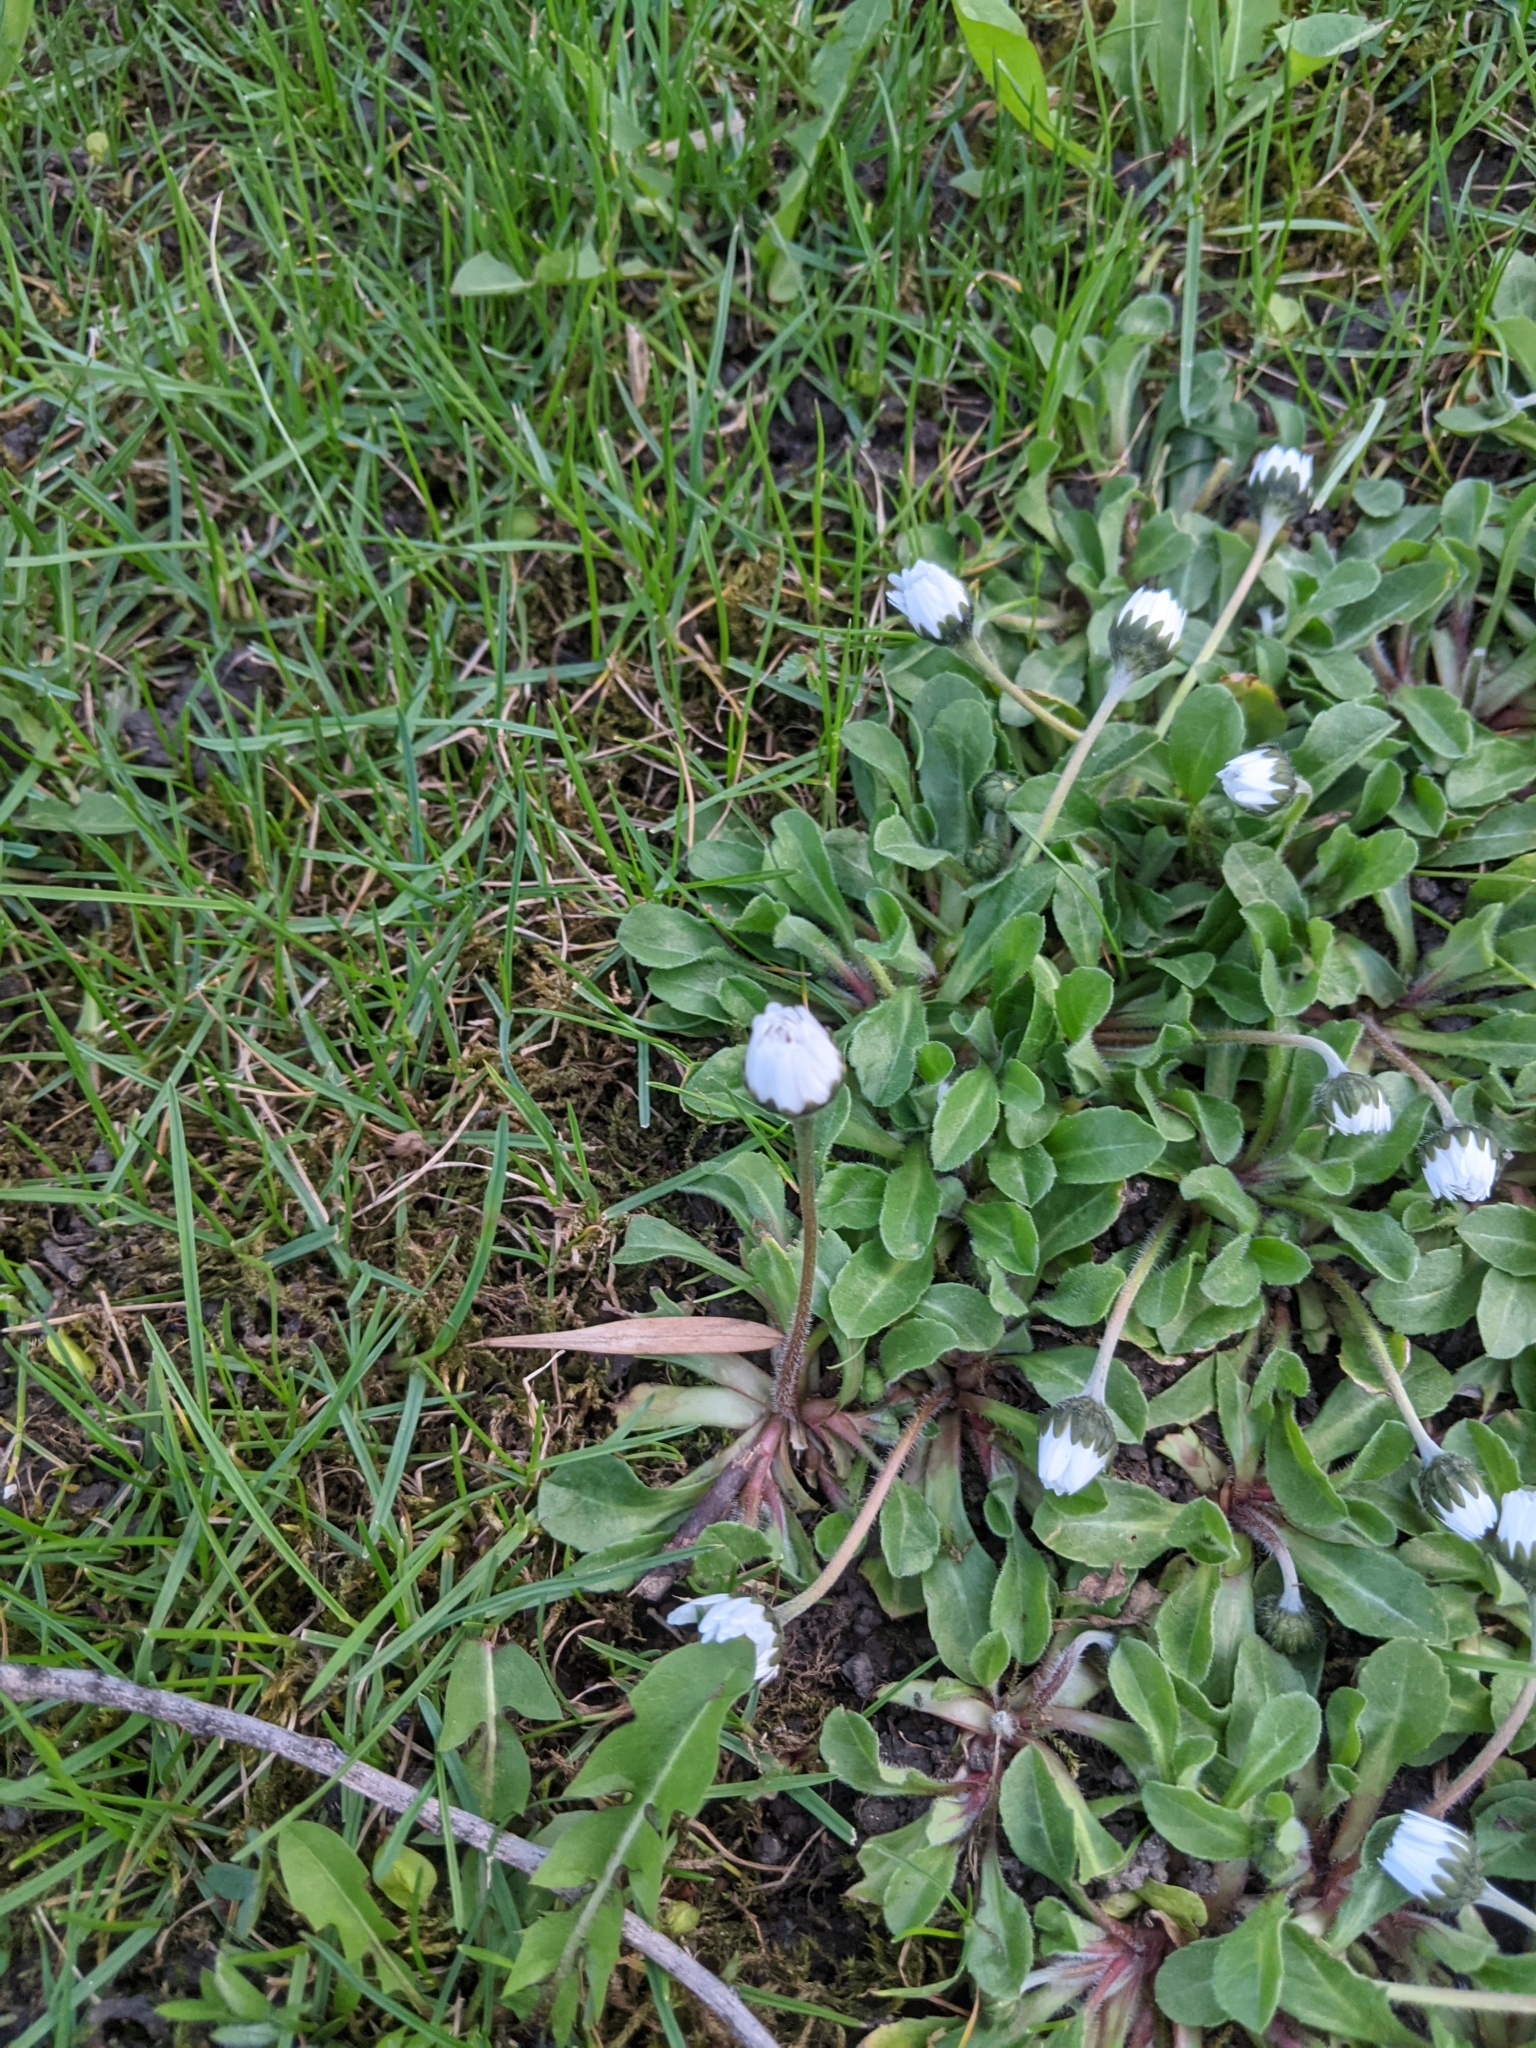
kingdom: Plantae
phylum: Tracheophyta
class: Magnoliopsida
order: Asterales
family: Asteraceae
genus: Bellis
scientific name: Bellis perennis
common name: Lawndaisy
